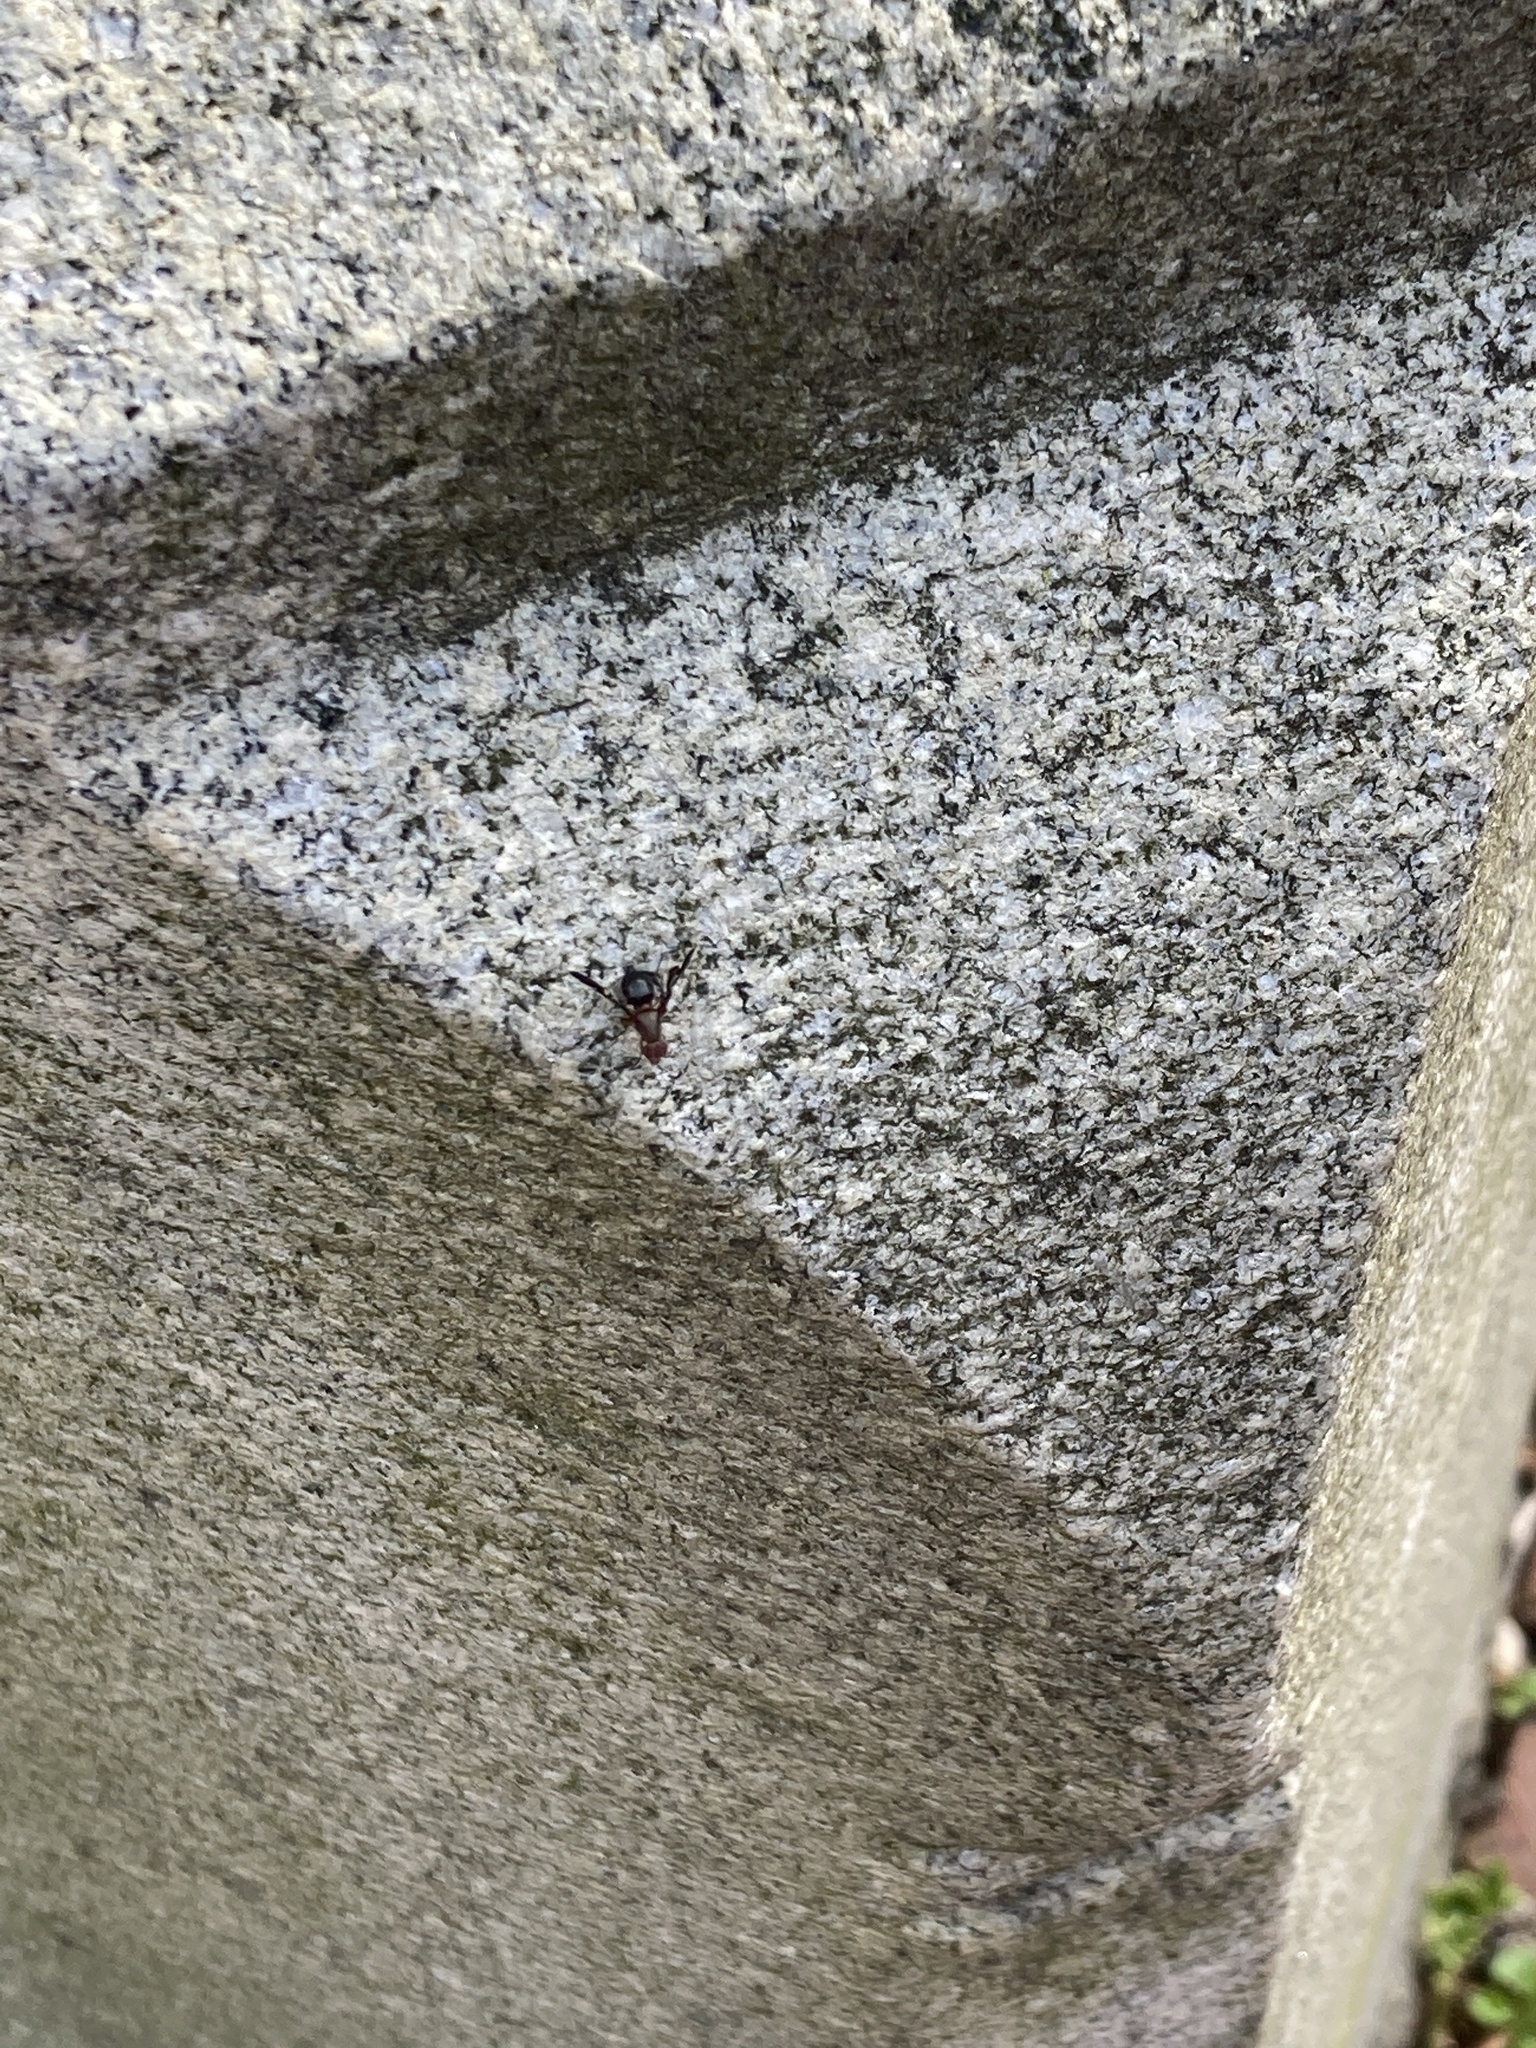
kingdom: Animalia
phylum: Arthropoda
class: Insecta
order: Diptera
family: Ulidiidae
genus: Delphinia
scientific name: Delphinia picta
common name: Common picture-winged fly
